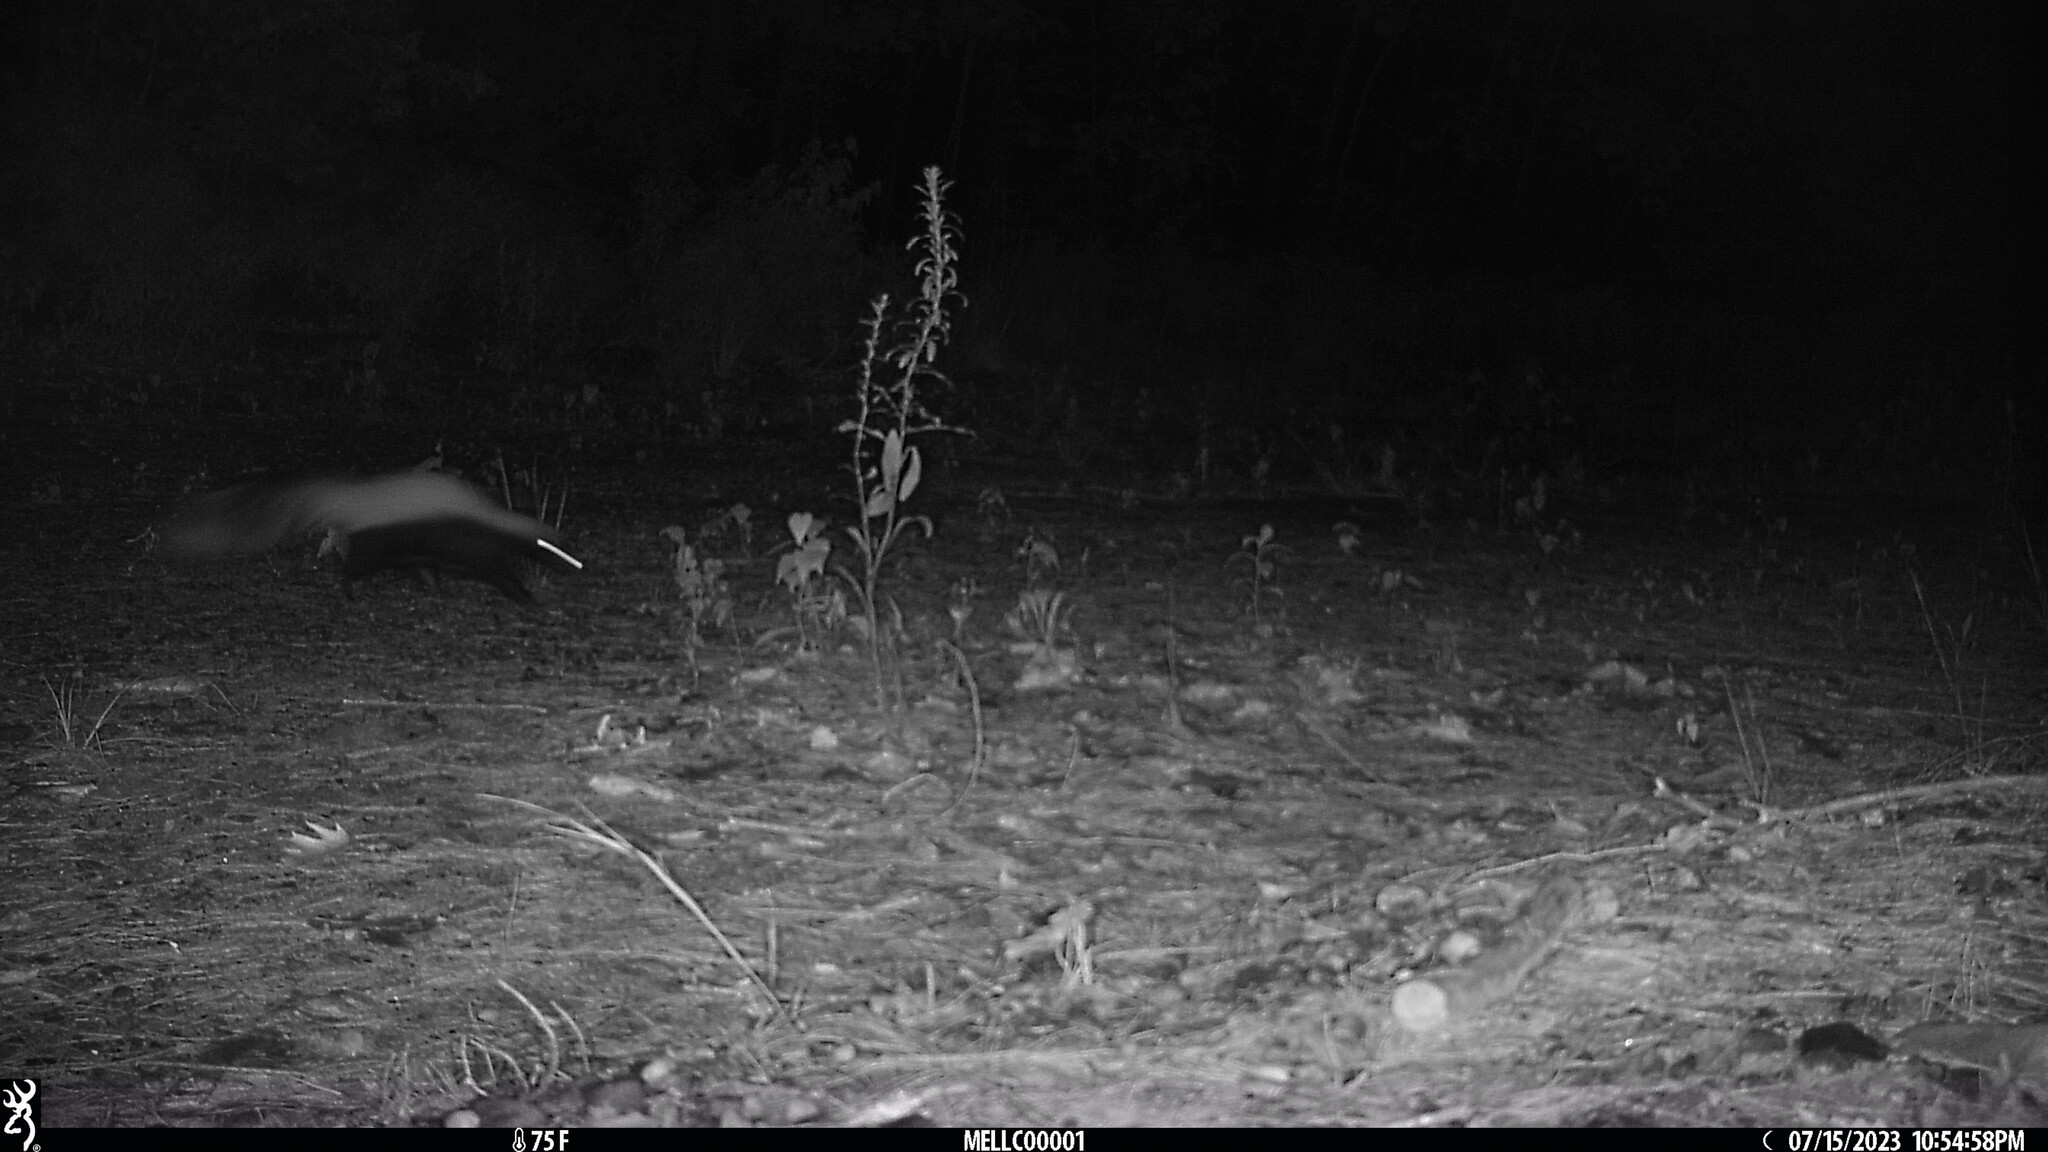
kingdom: Animalia
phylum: Chordata
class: Mammalia
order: Carnivora
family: Mephitidae
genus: Mephitis
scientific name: Mephitis mephitis
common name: Striped skunk
